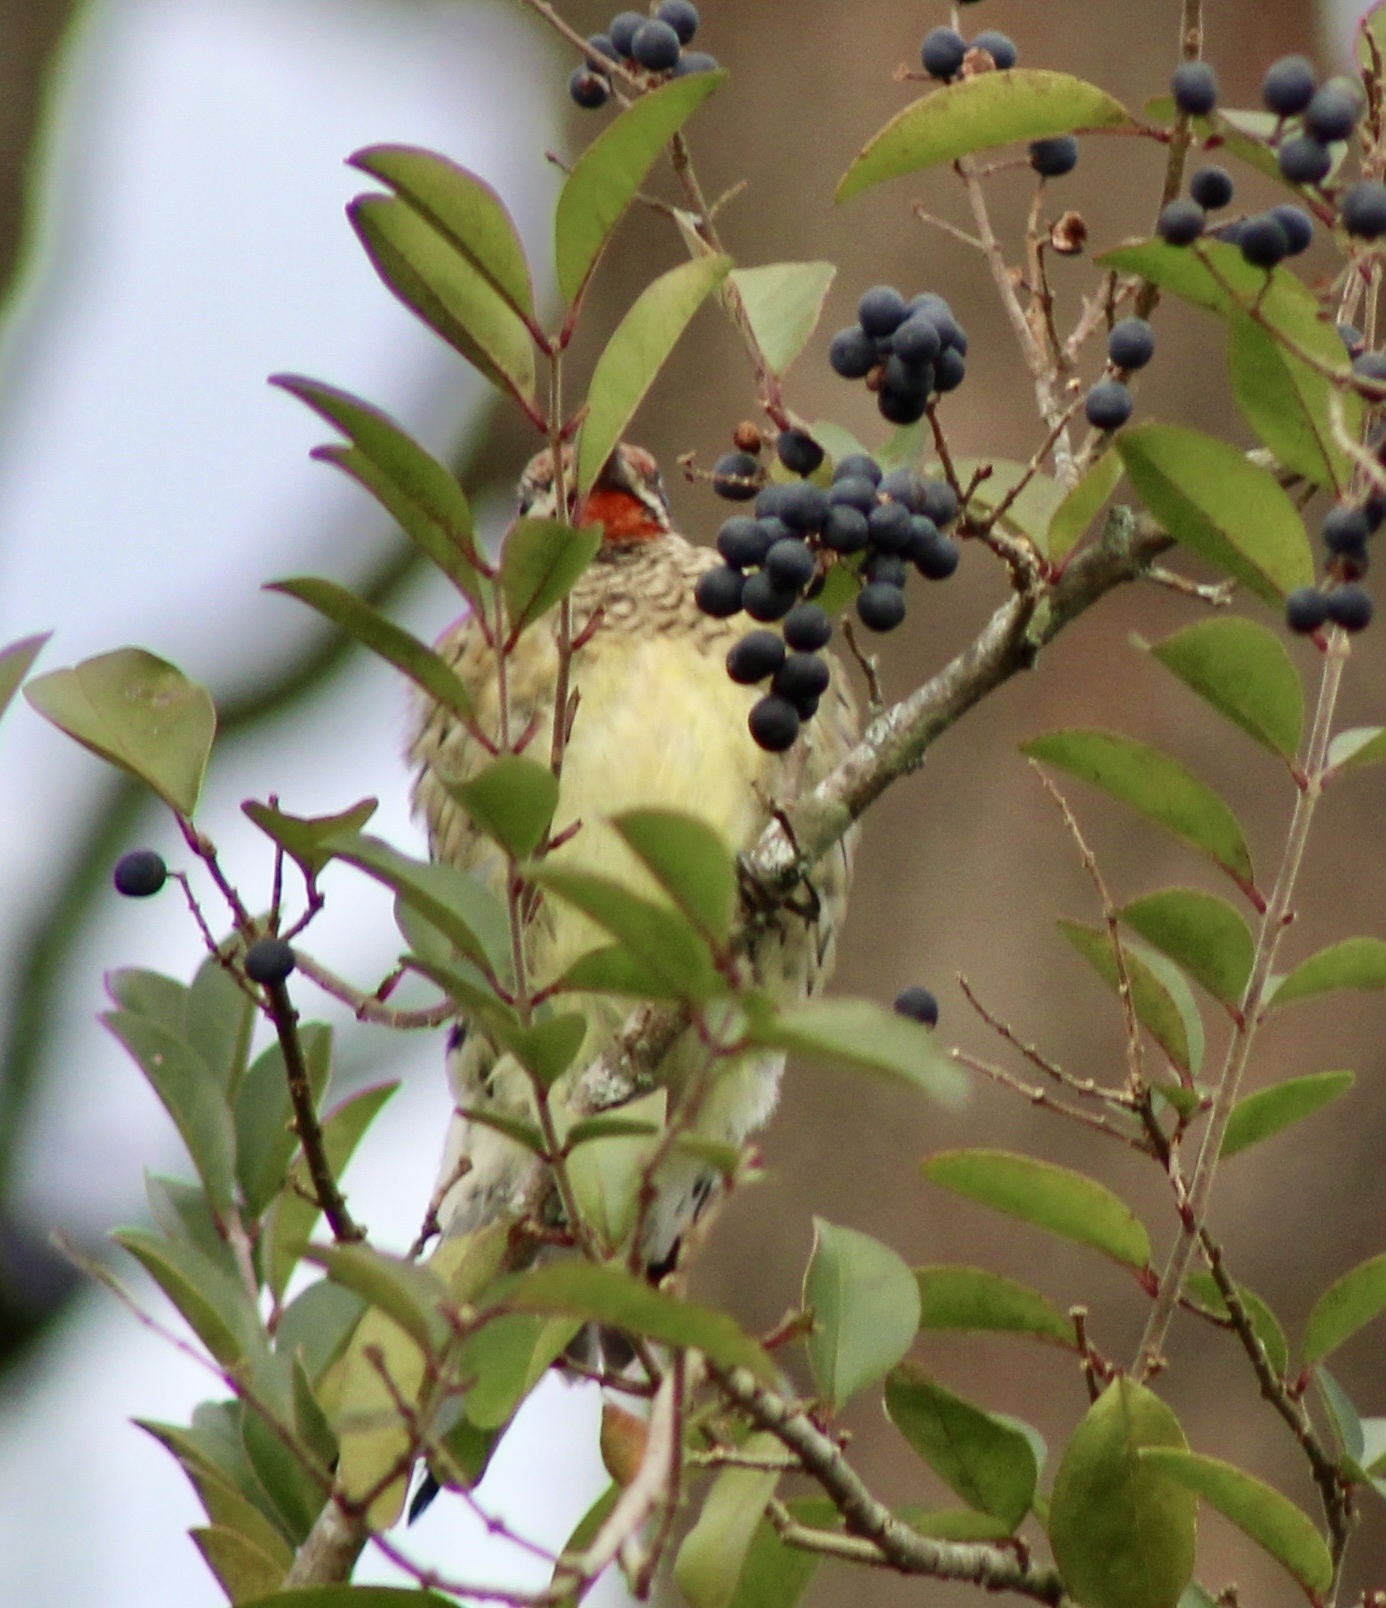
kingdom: Animalia
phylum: Chordata
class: Aves
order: Piciformes
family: Picidae
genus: Sphyrapicus
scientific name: Sphyrapicus varius
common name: Yellow-bellied sapsucker
